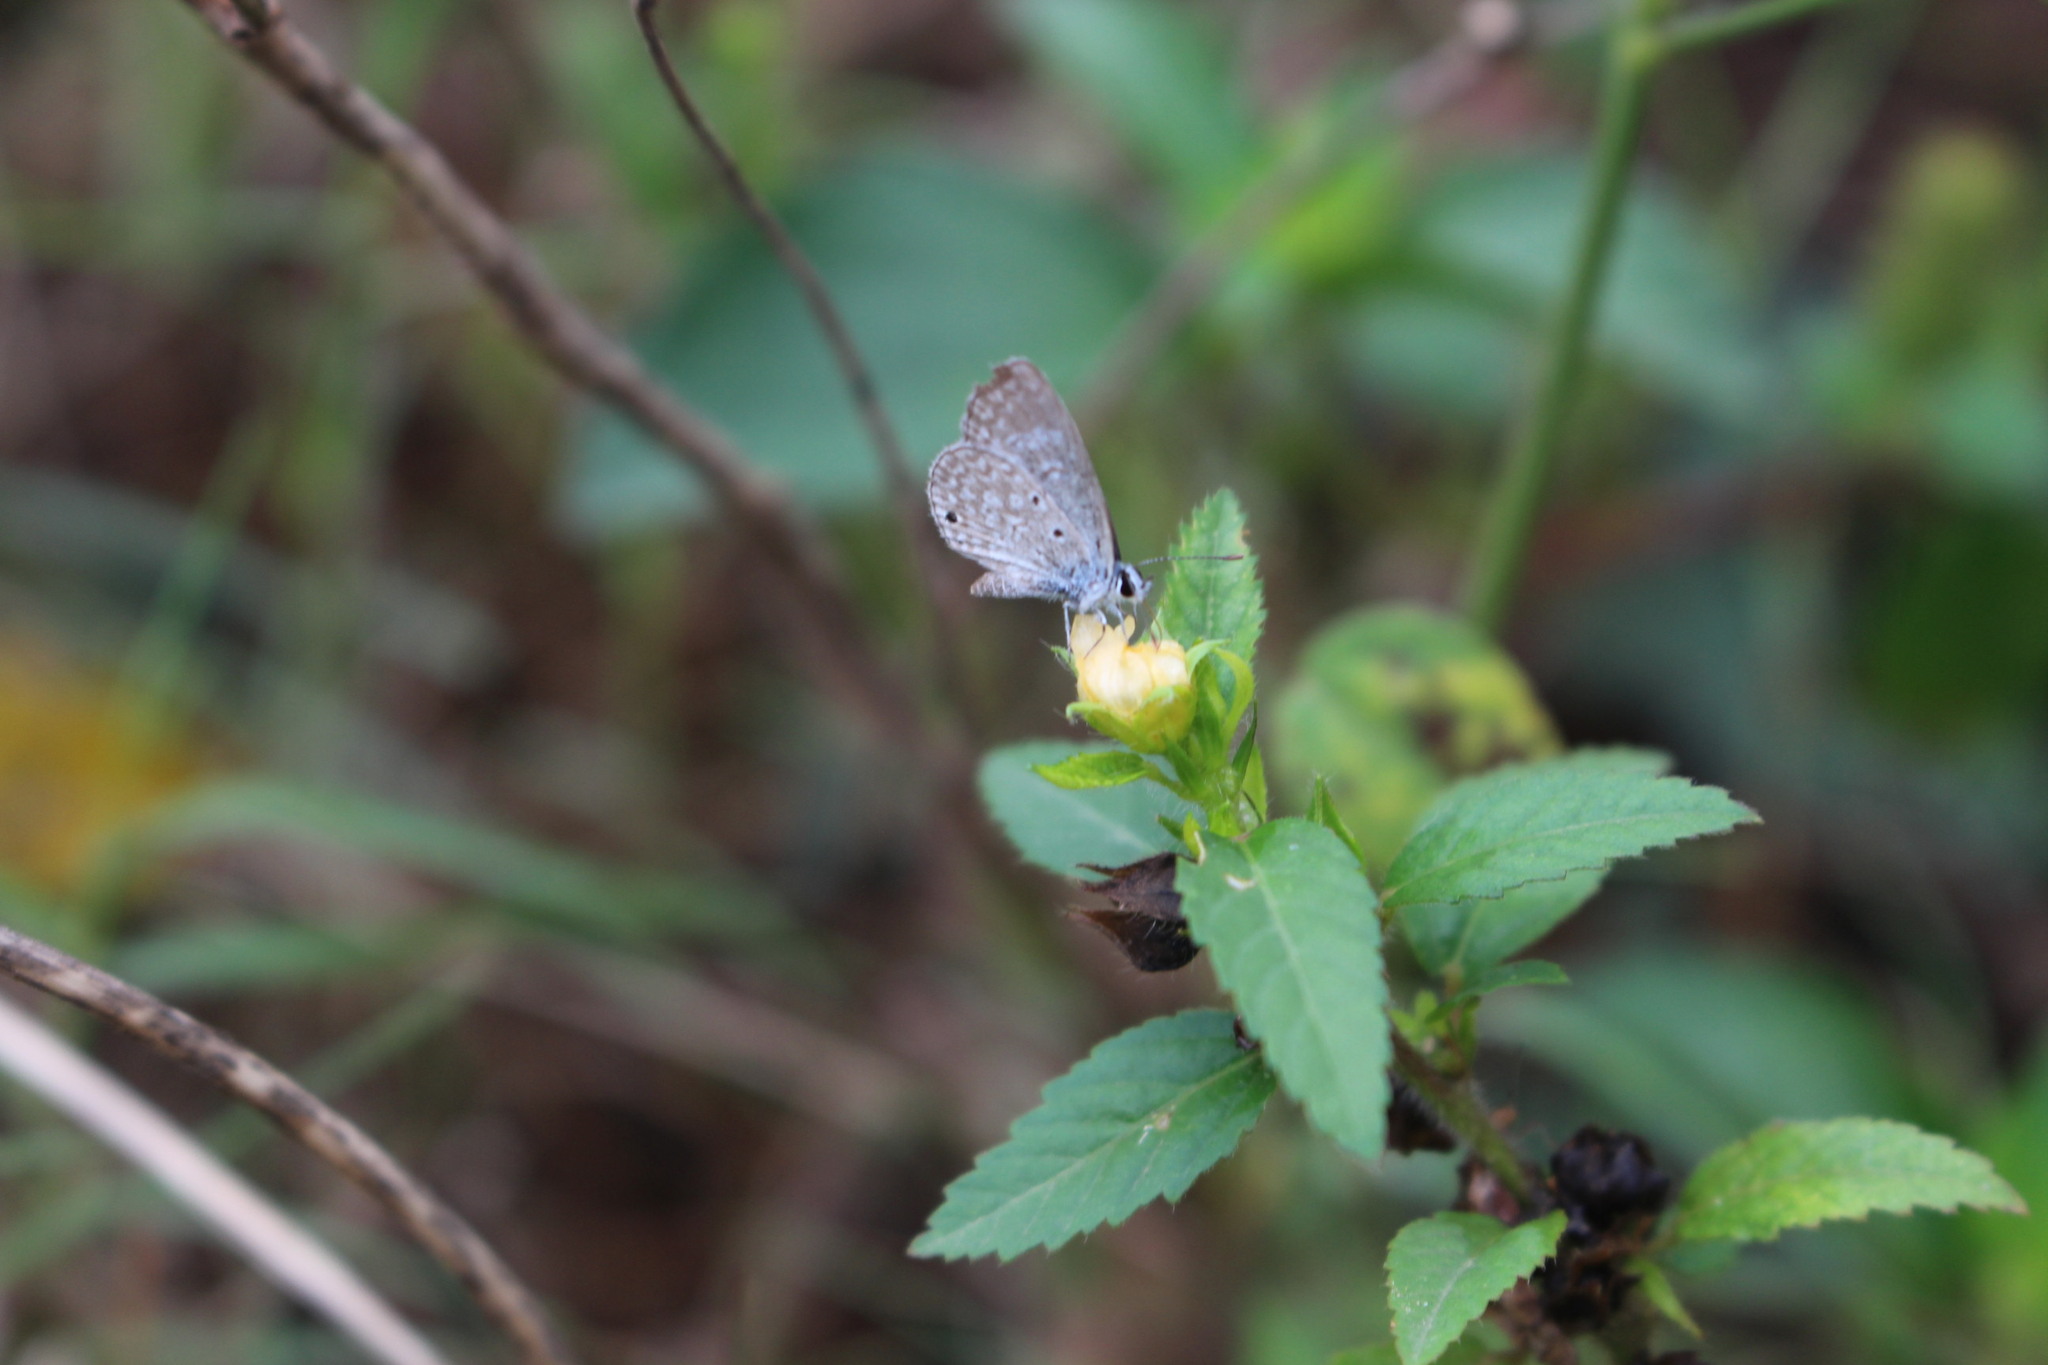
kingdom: Animalia
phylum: Arthropoda
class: Insecta
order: Lepidoptera
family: Lycaenidae
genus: Hemiargus
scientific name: Hemiargus hanno
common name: Common blue
